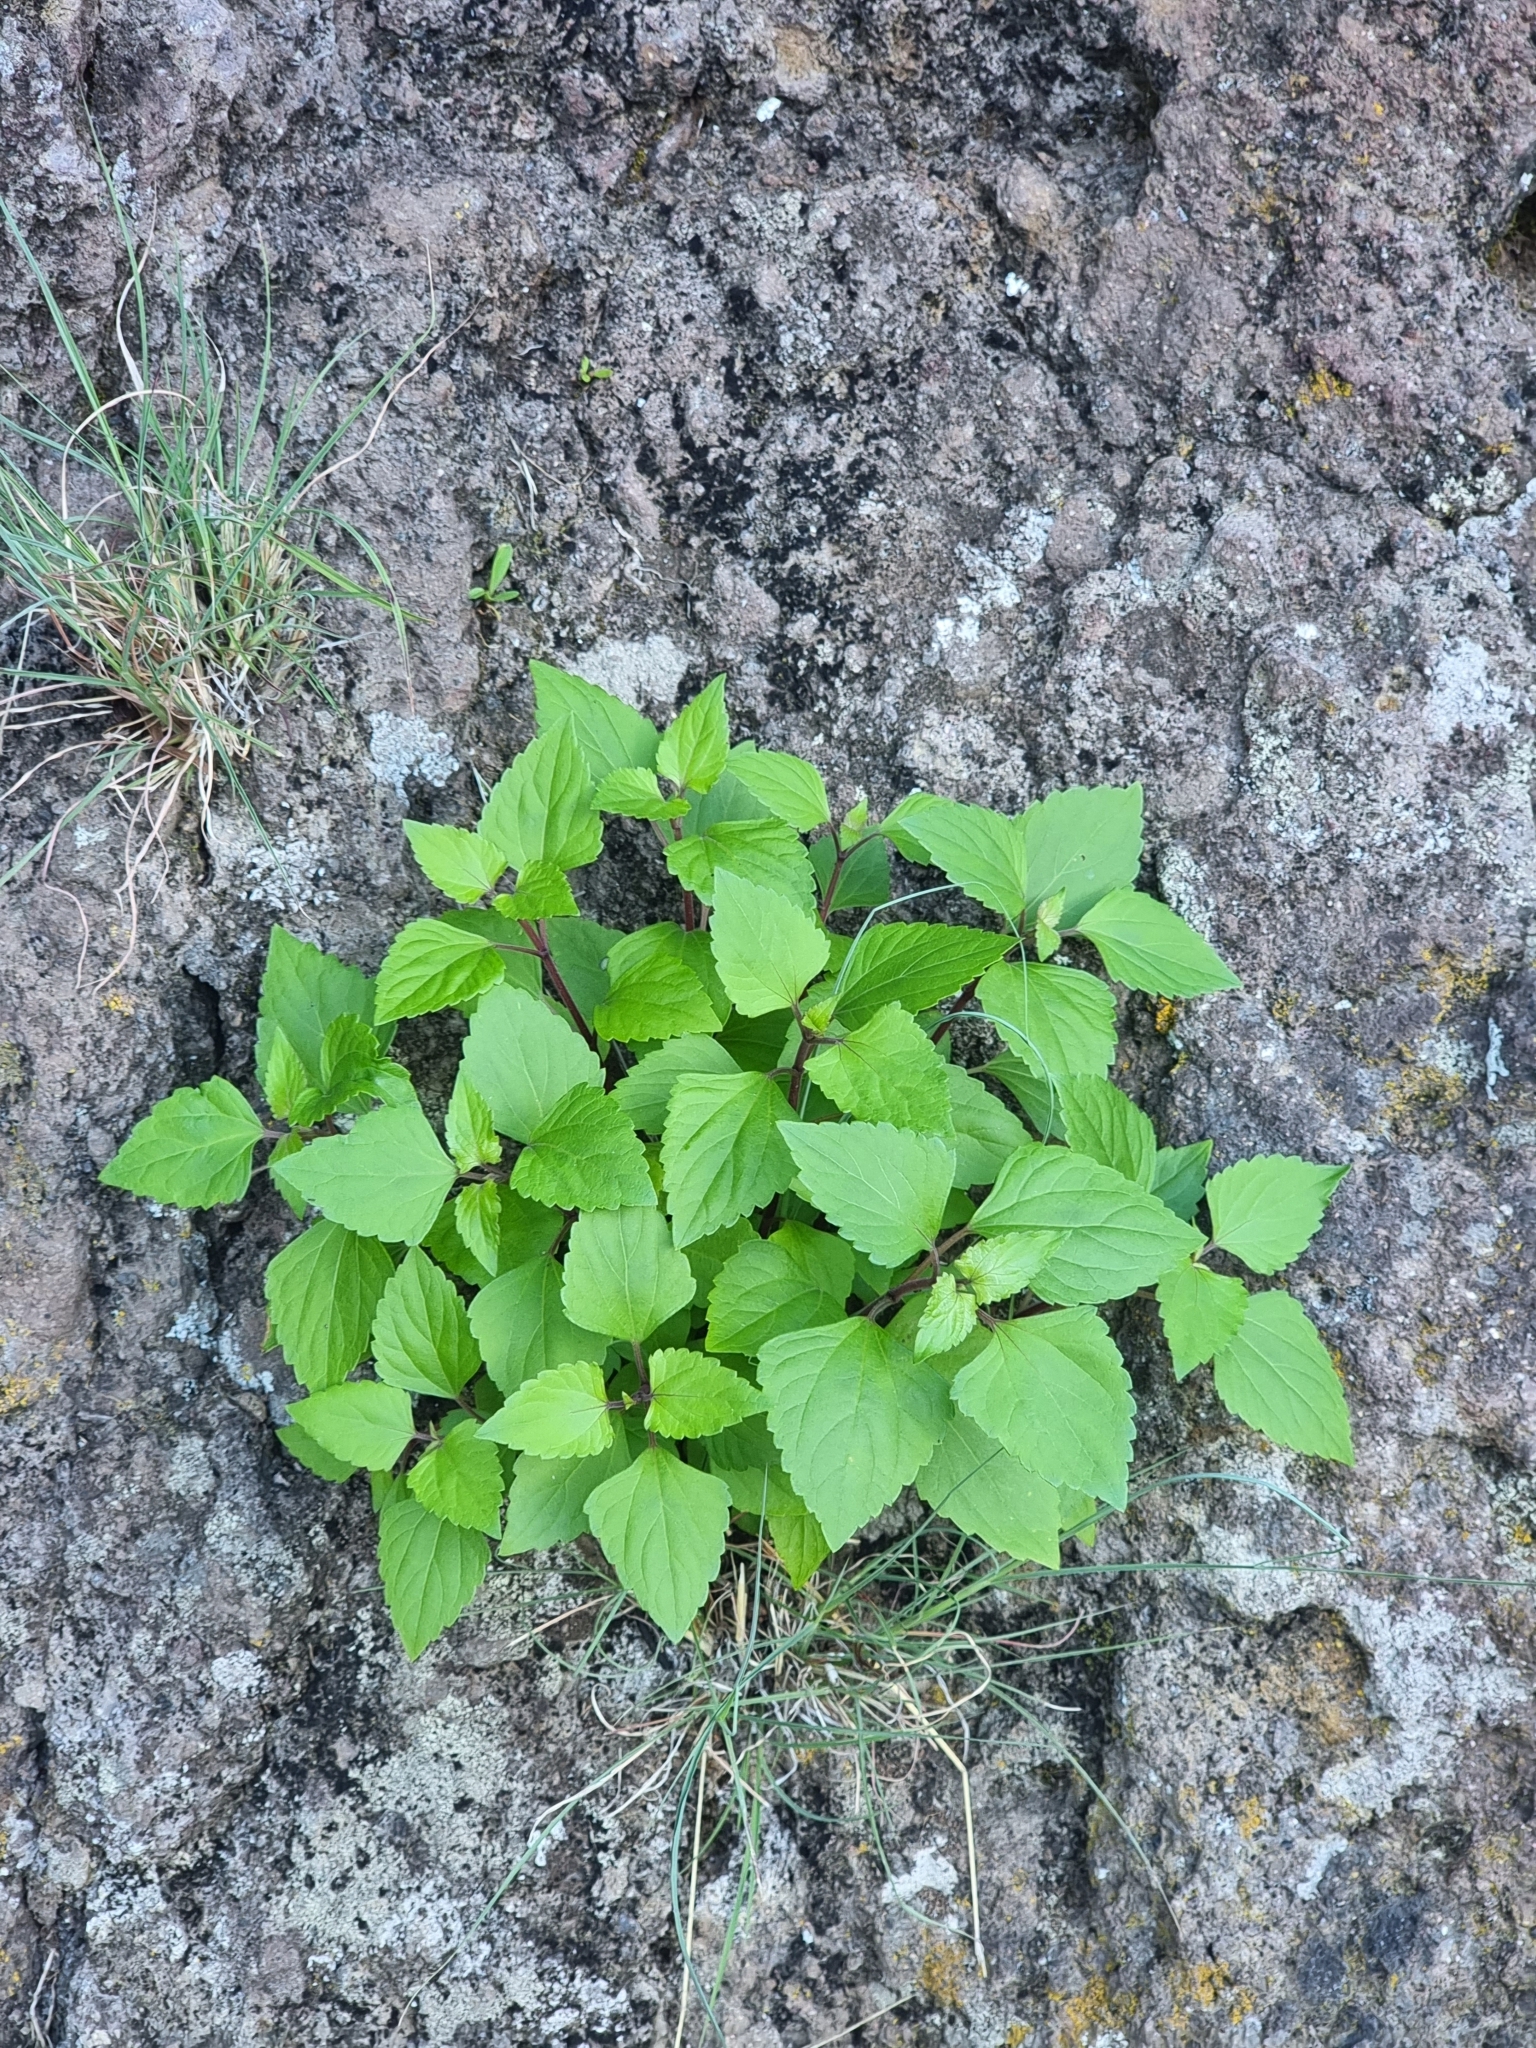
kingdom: Plantae
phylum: Tracheophyta
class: Magnoliopsida
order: Asterales
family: Asteraceae
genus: Ageratina
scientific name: Ageratina adenophora
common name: Sticky snakeroot
